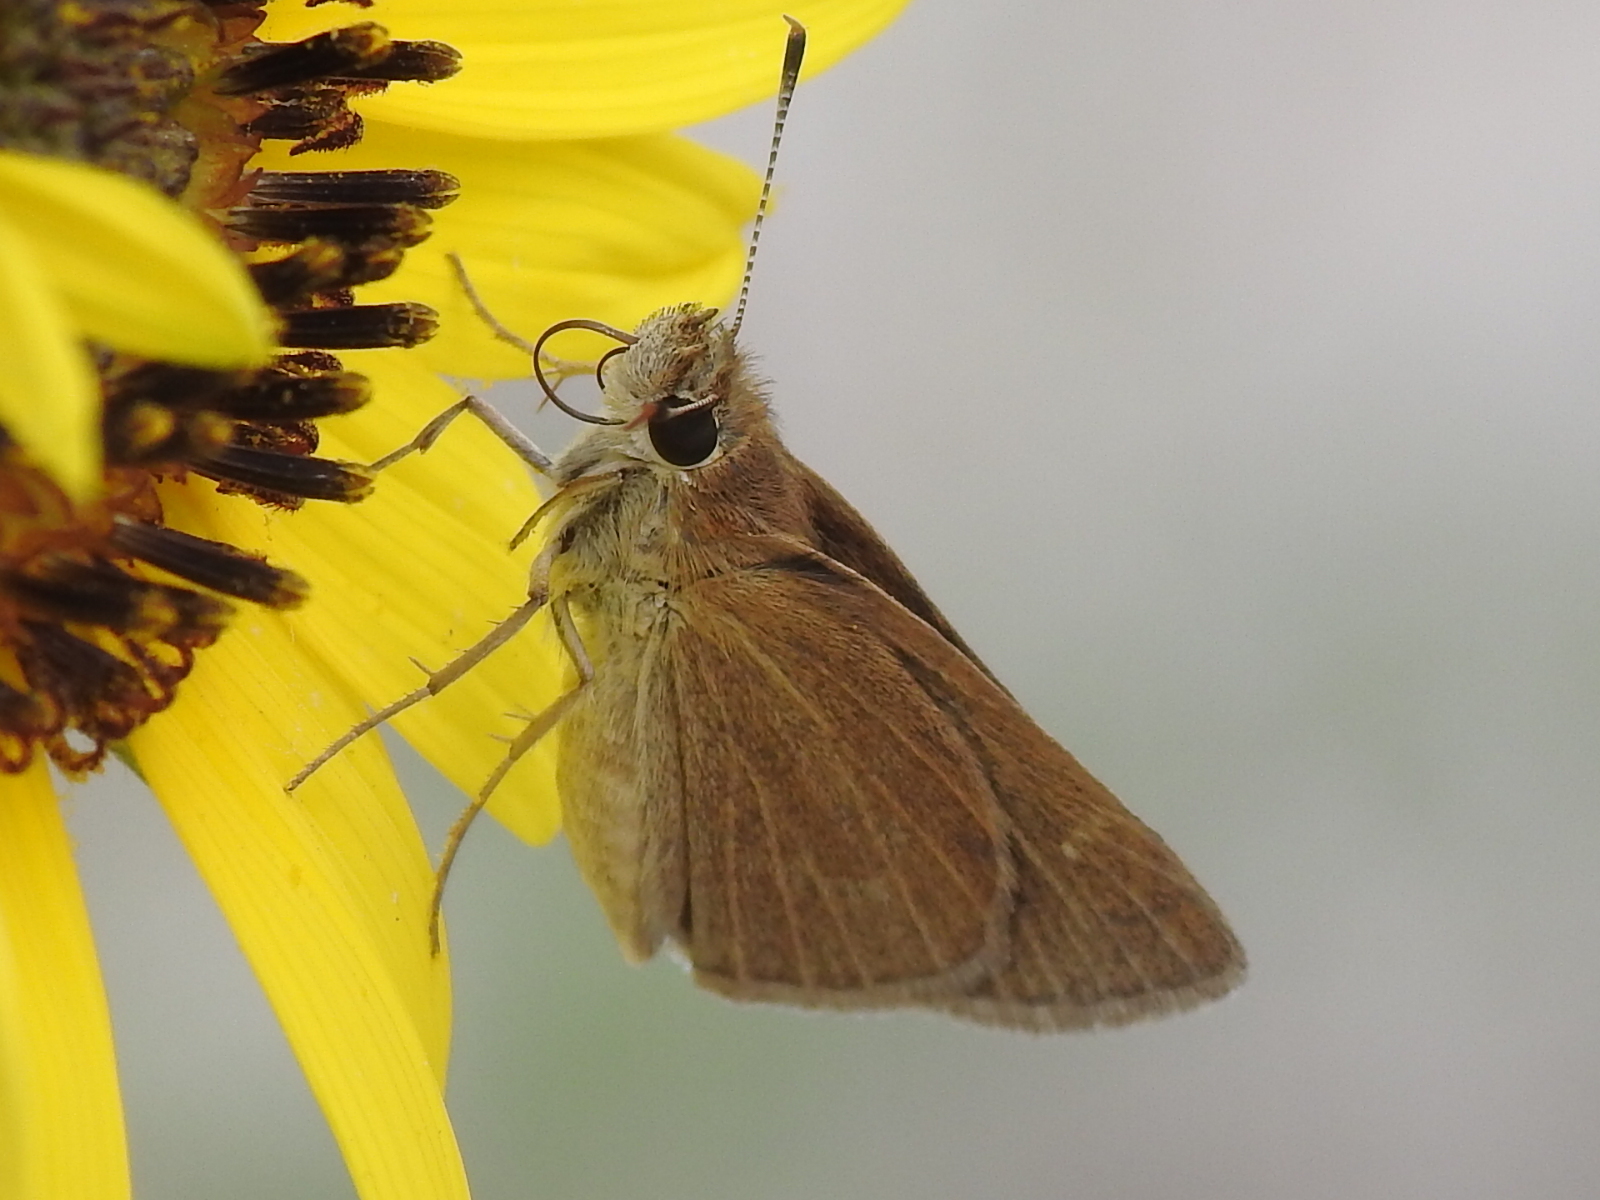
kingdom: Animalia
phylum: Arthropoda
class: Insecta
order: Lepidoptera
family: Hesperiidae
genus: Nastra
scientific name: Nastra julia
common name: Julia's skipper
